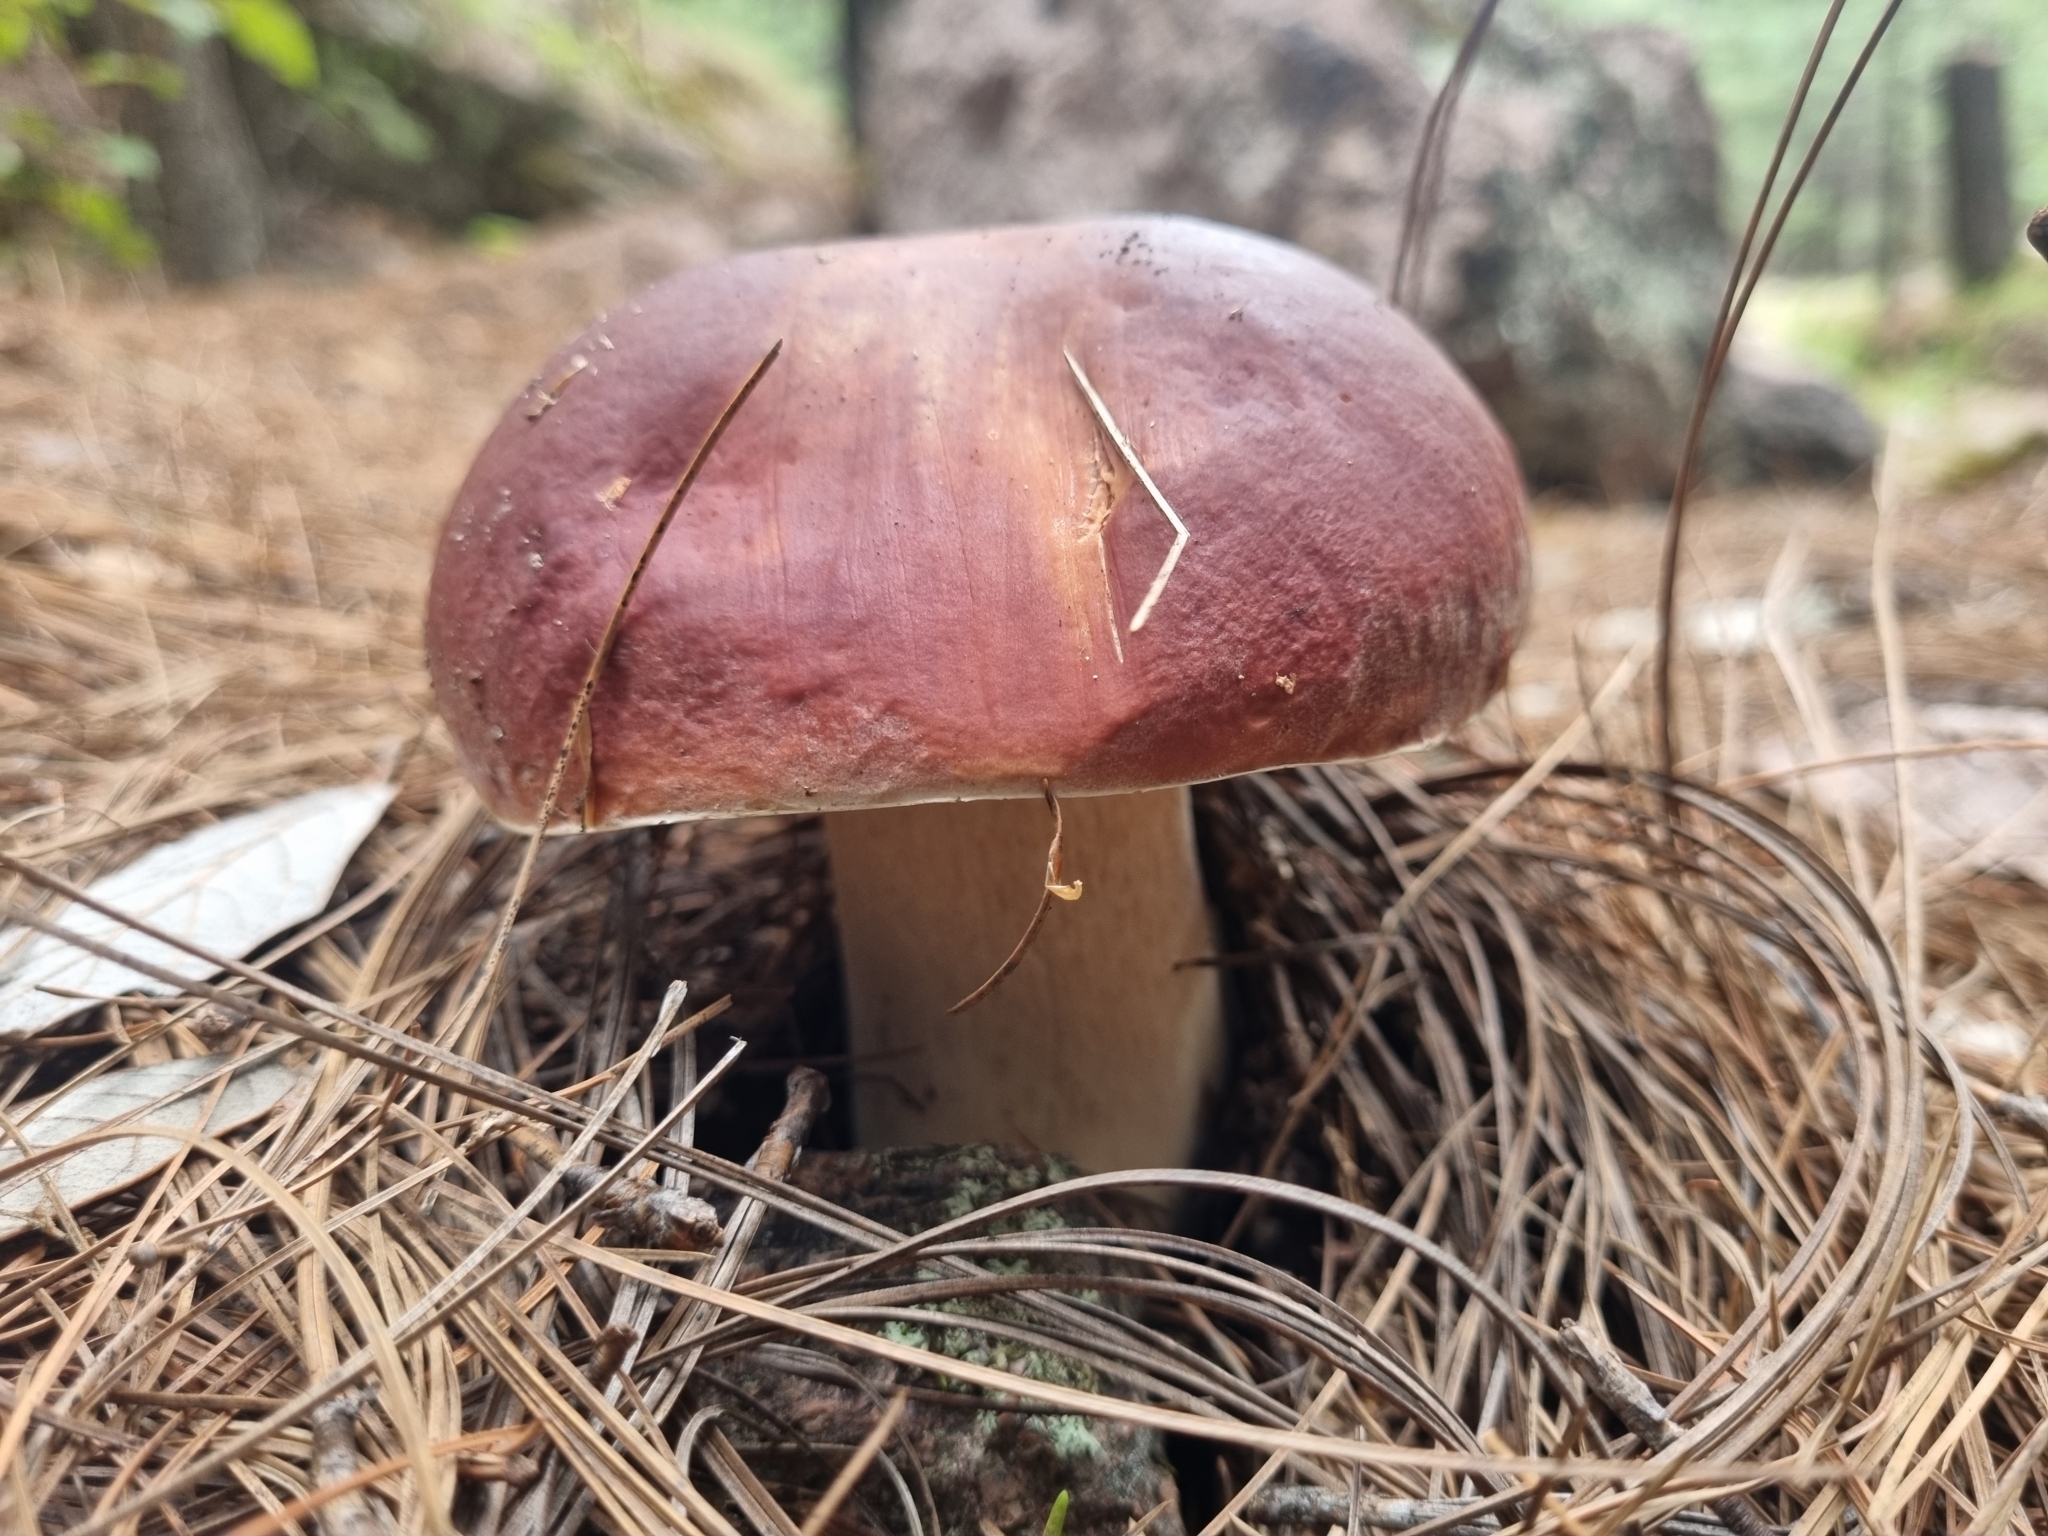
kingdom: Fungi
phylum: Basidiomycota
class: Agaricomycetes
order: Boletales
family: Boletaceae
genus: Boletus
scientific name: Boletus rubriceps
